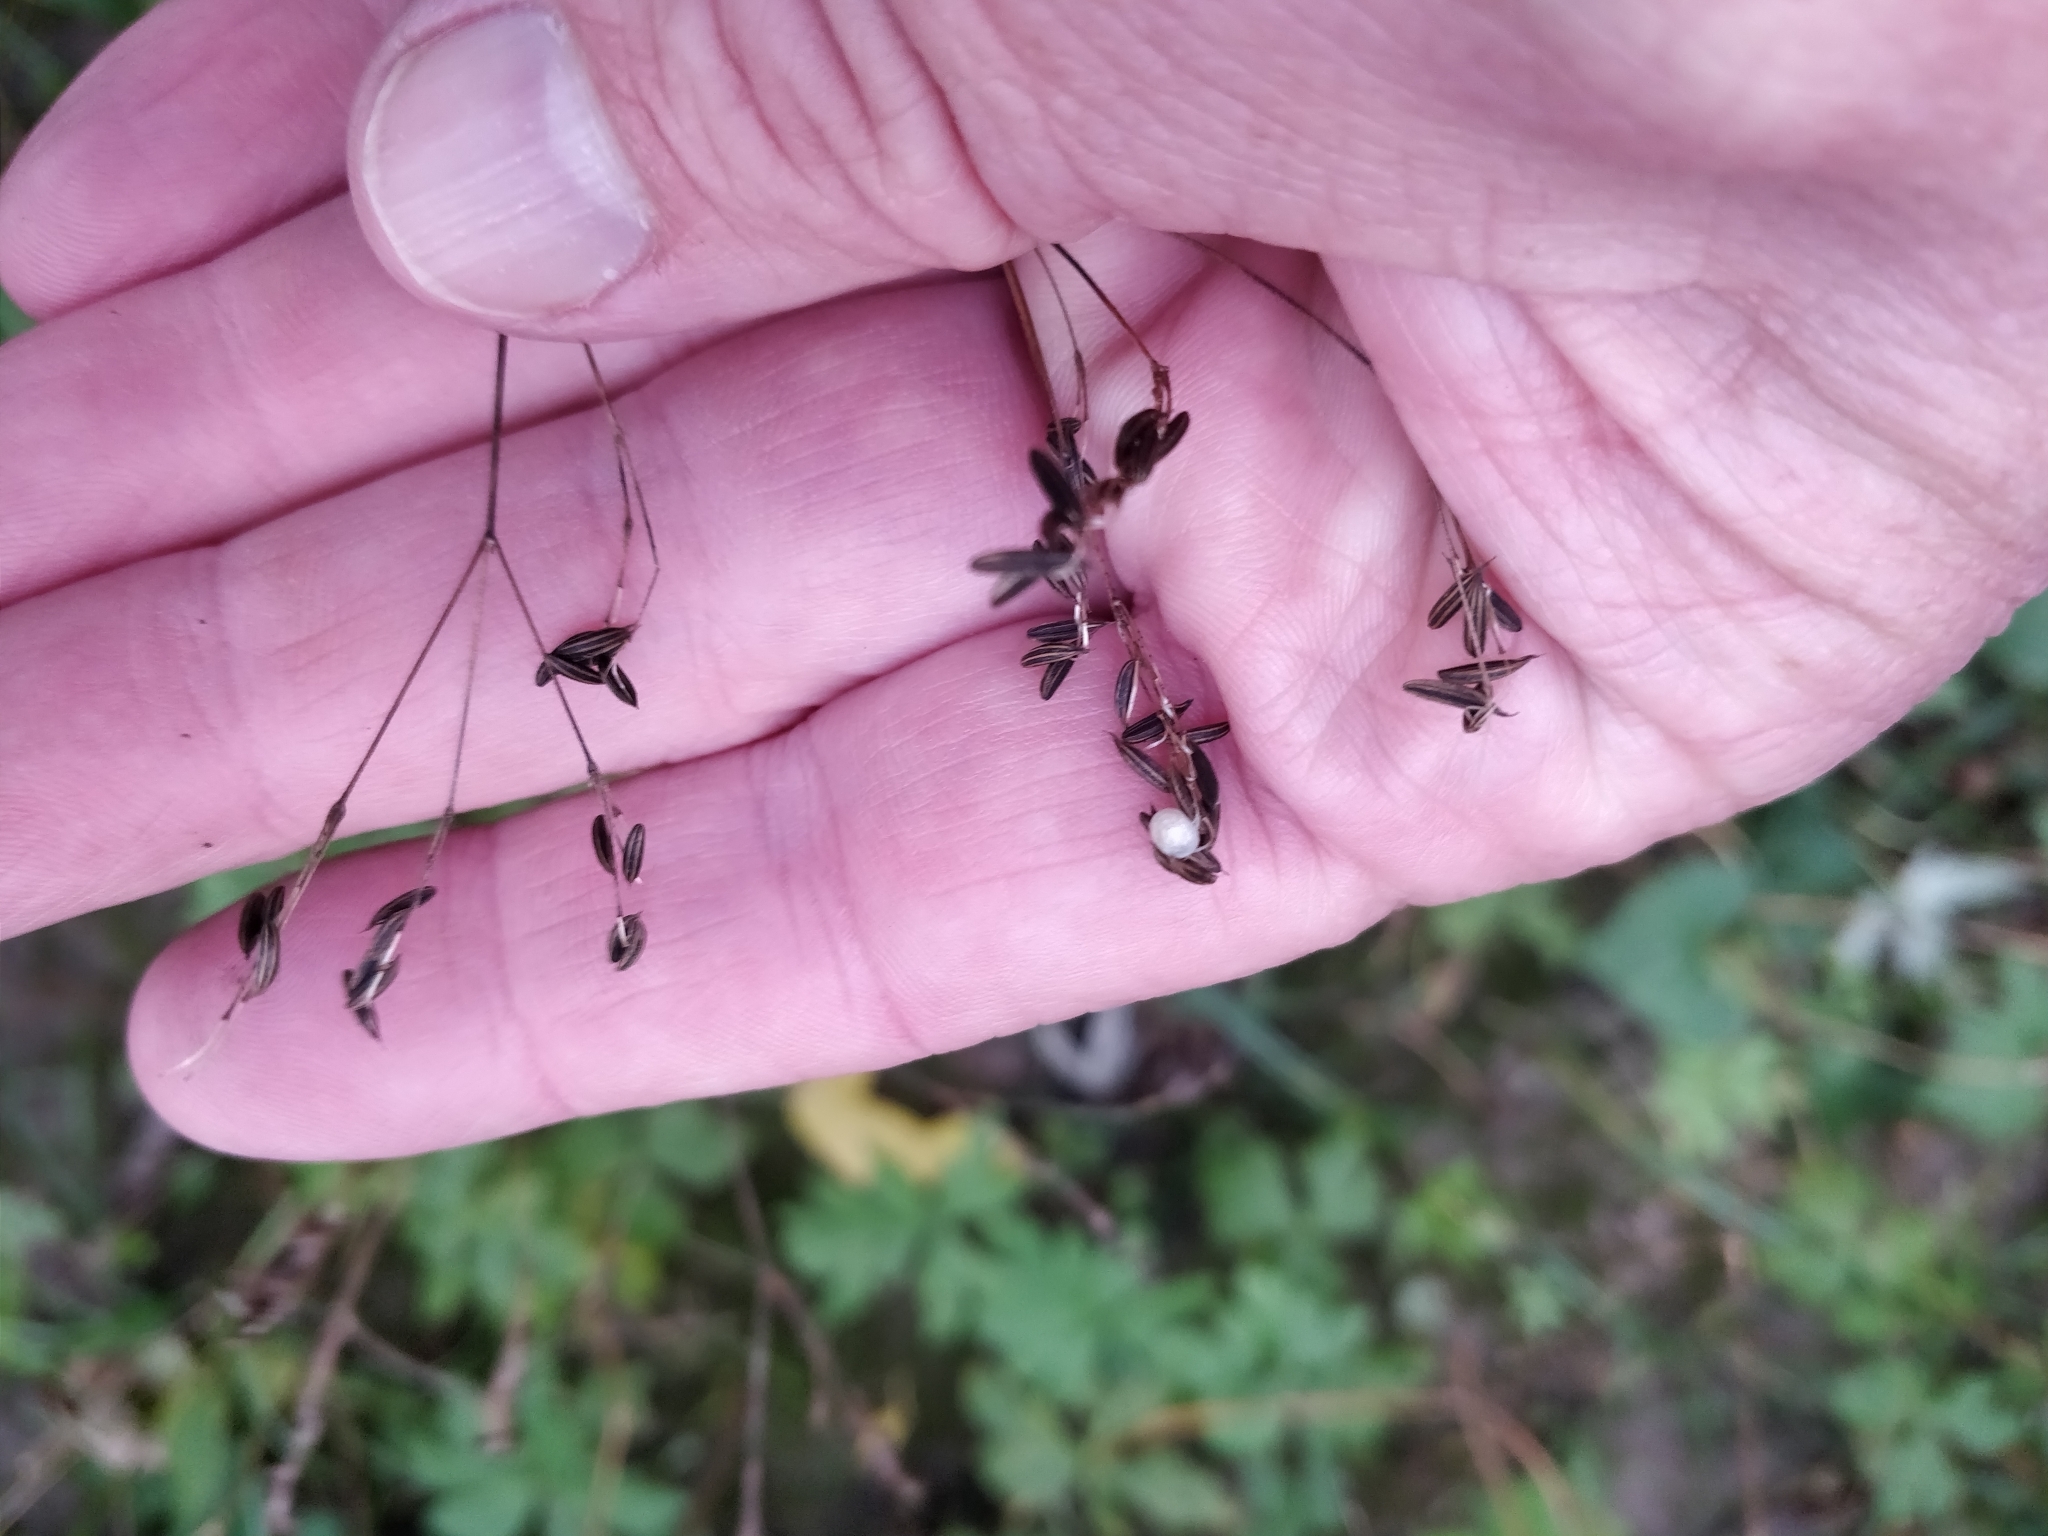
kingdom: Plantae
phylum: Tracheophyta
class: Magnoliopsida
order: Apiales
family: Apiaceae
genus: Cryptotaenia
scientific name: Cryptotaenia canadensis
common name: Honewort
